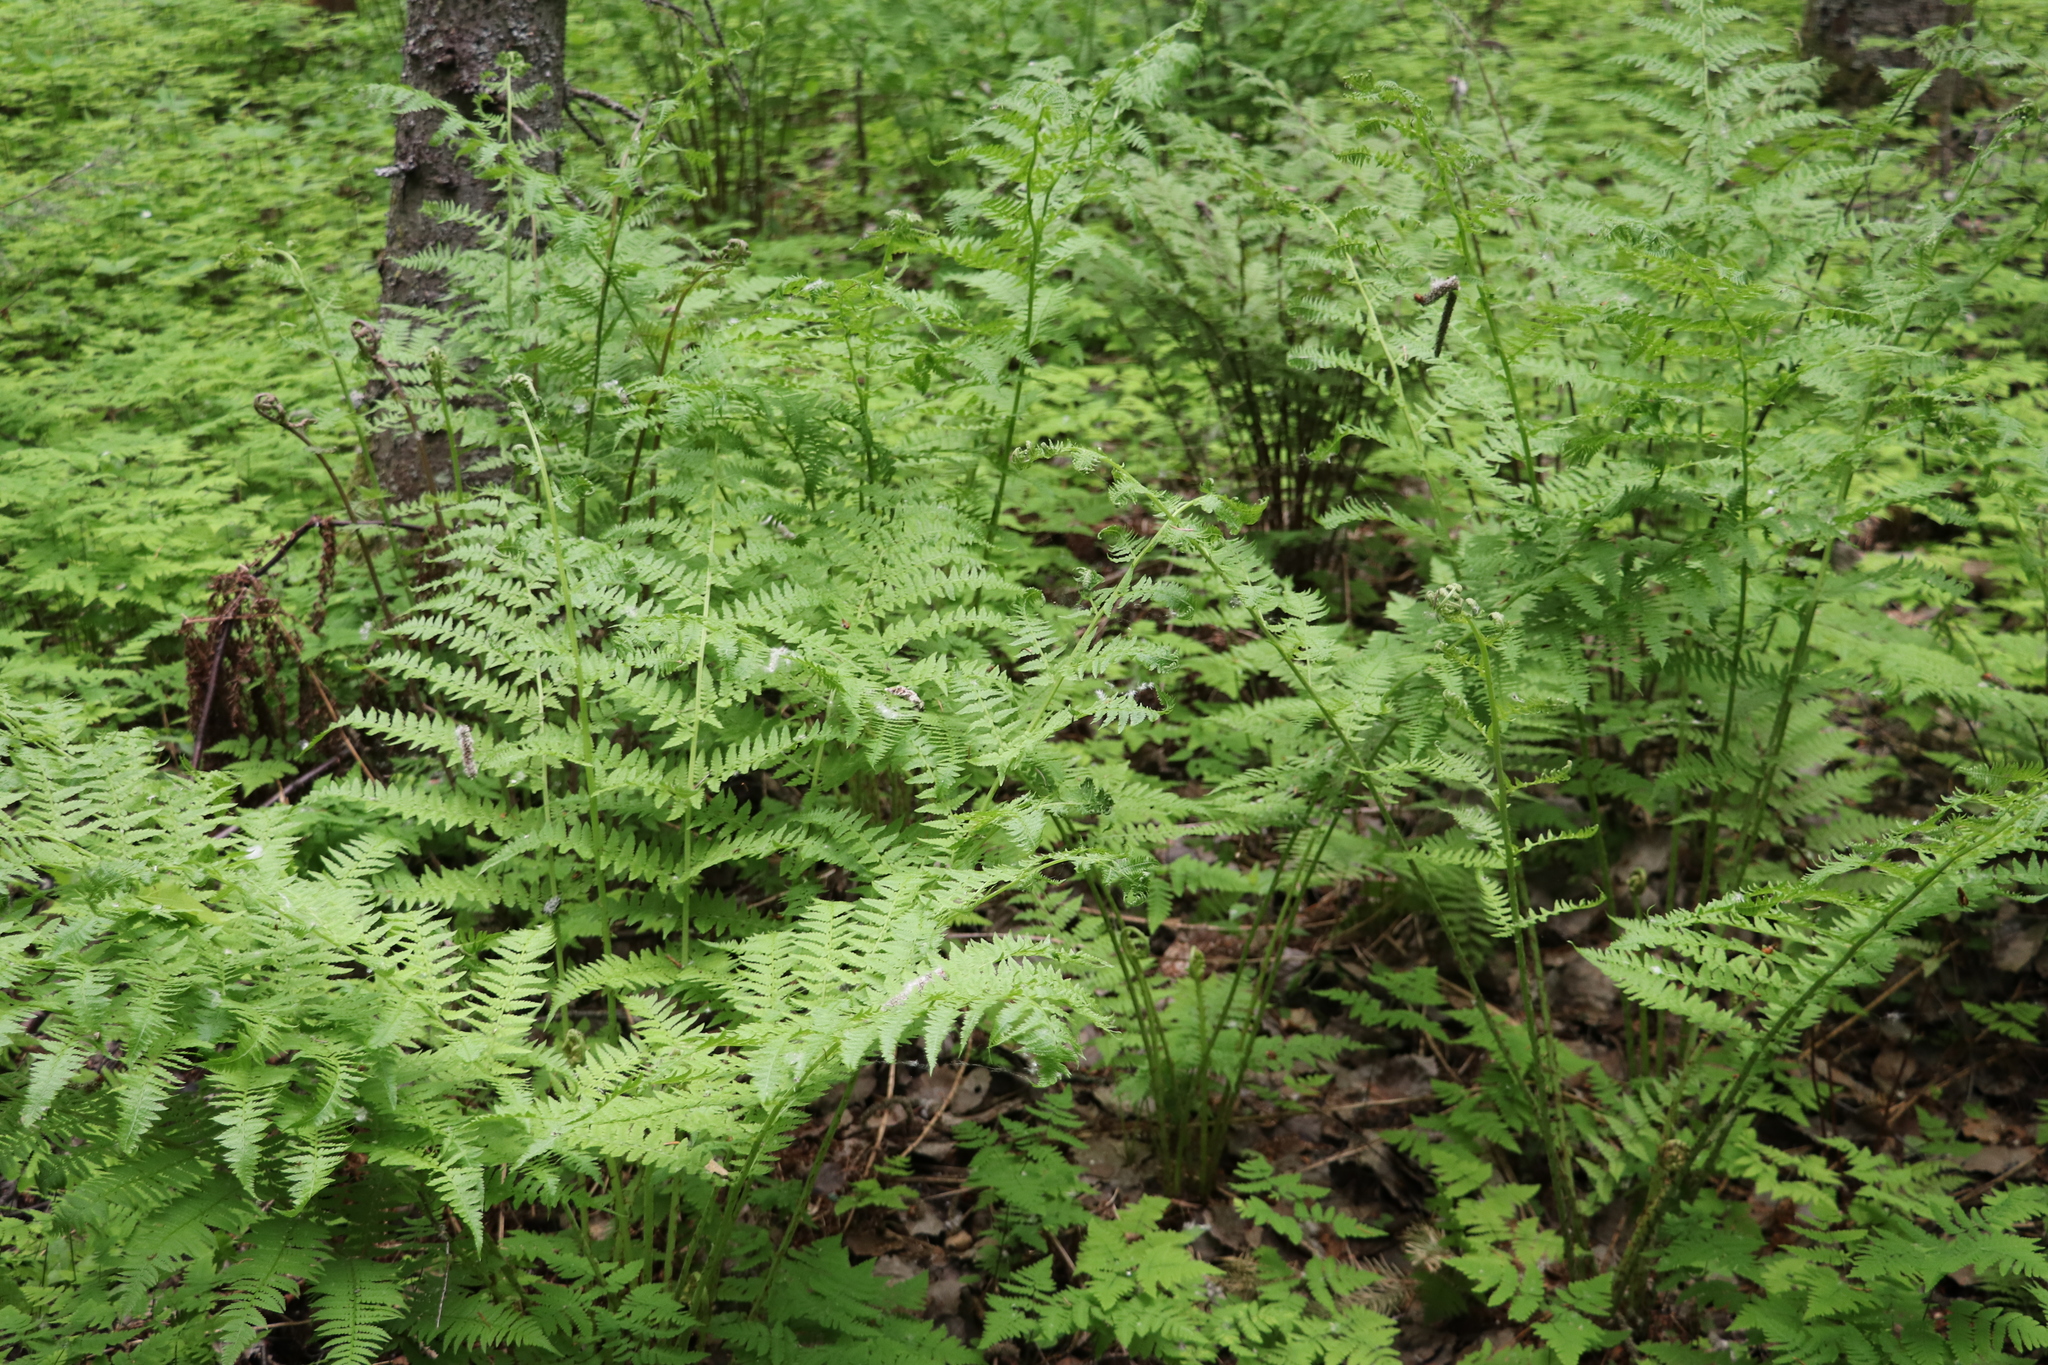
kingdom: Plantae
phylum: Tracheophyta
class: Polypodiopsida
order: Polypodiales
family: Athyriaceae
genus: Athyrium
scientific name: Athyrium filix-femina
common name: Lady fern
